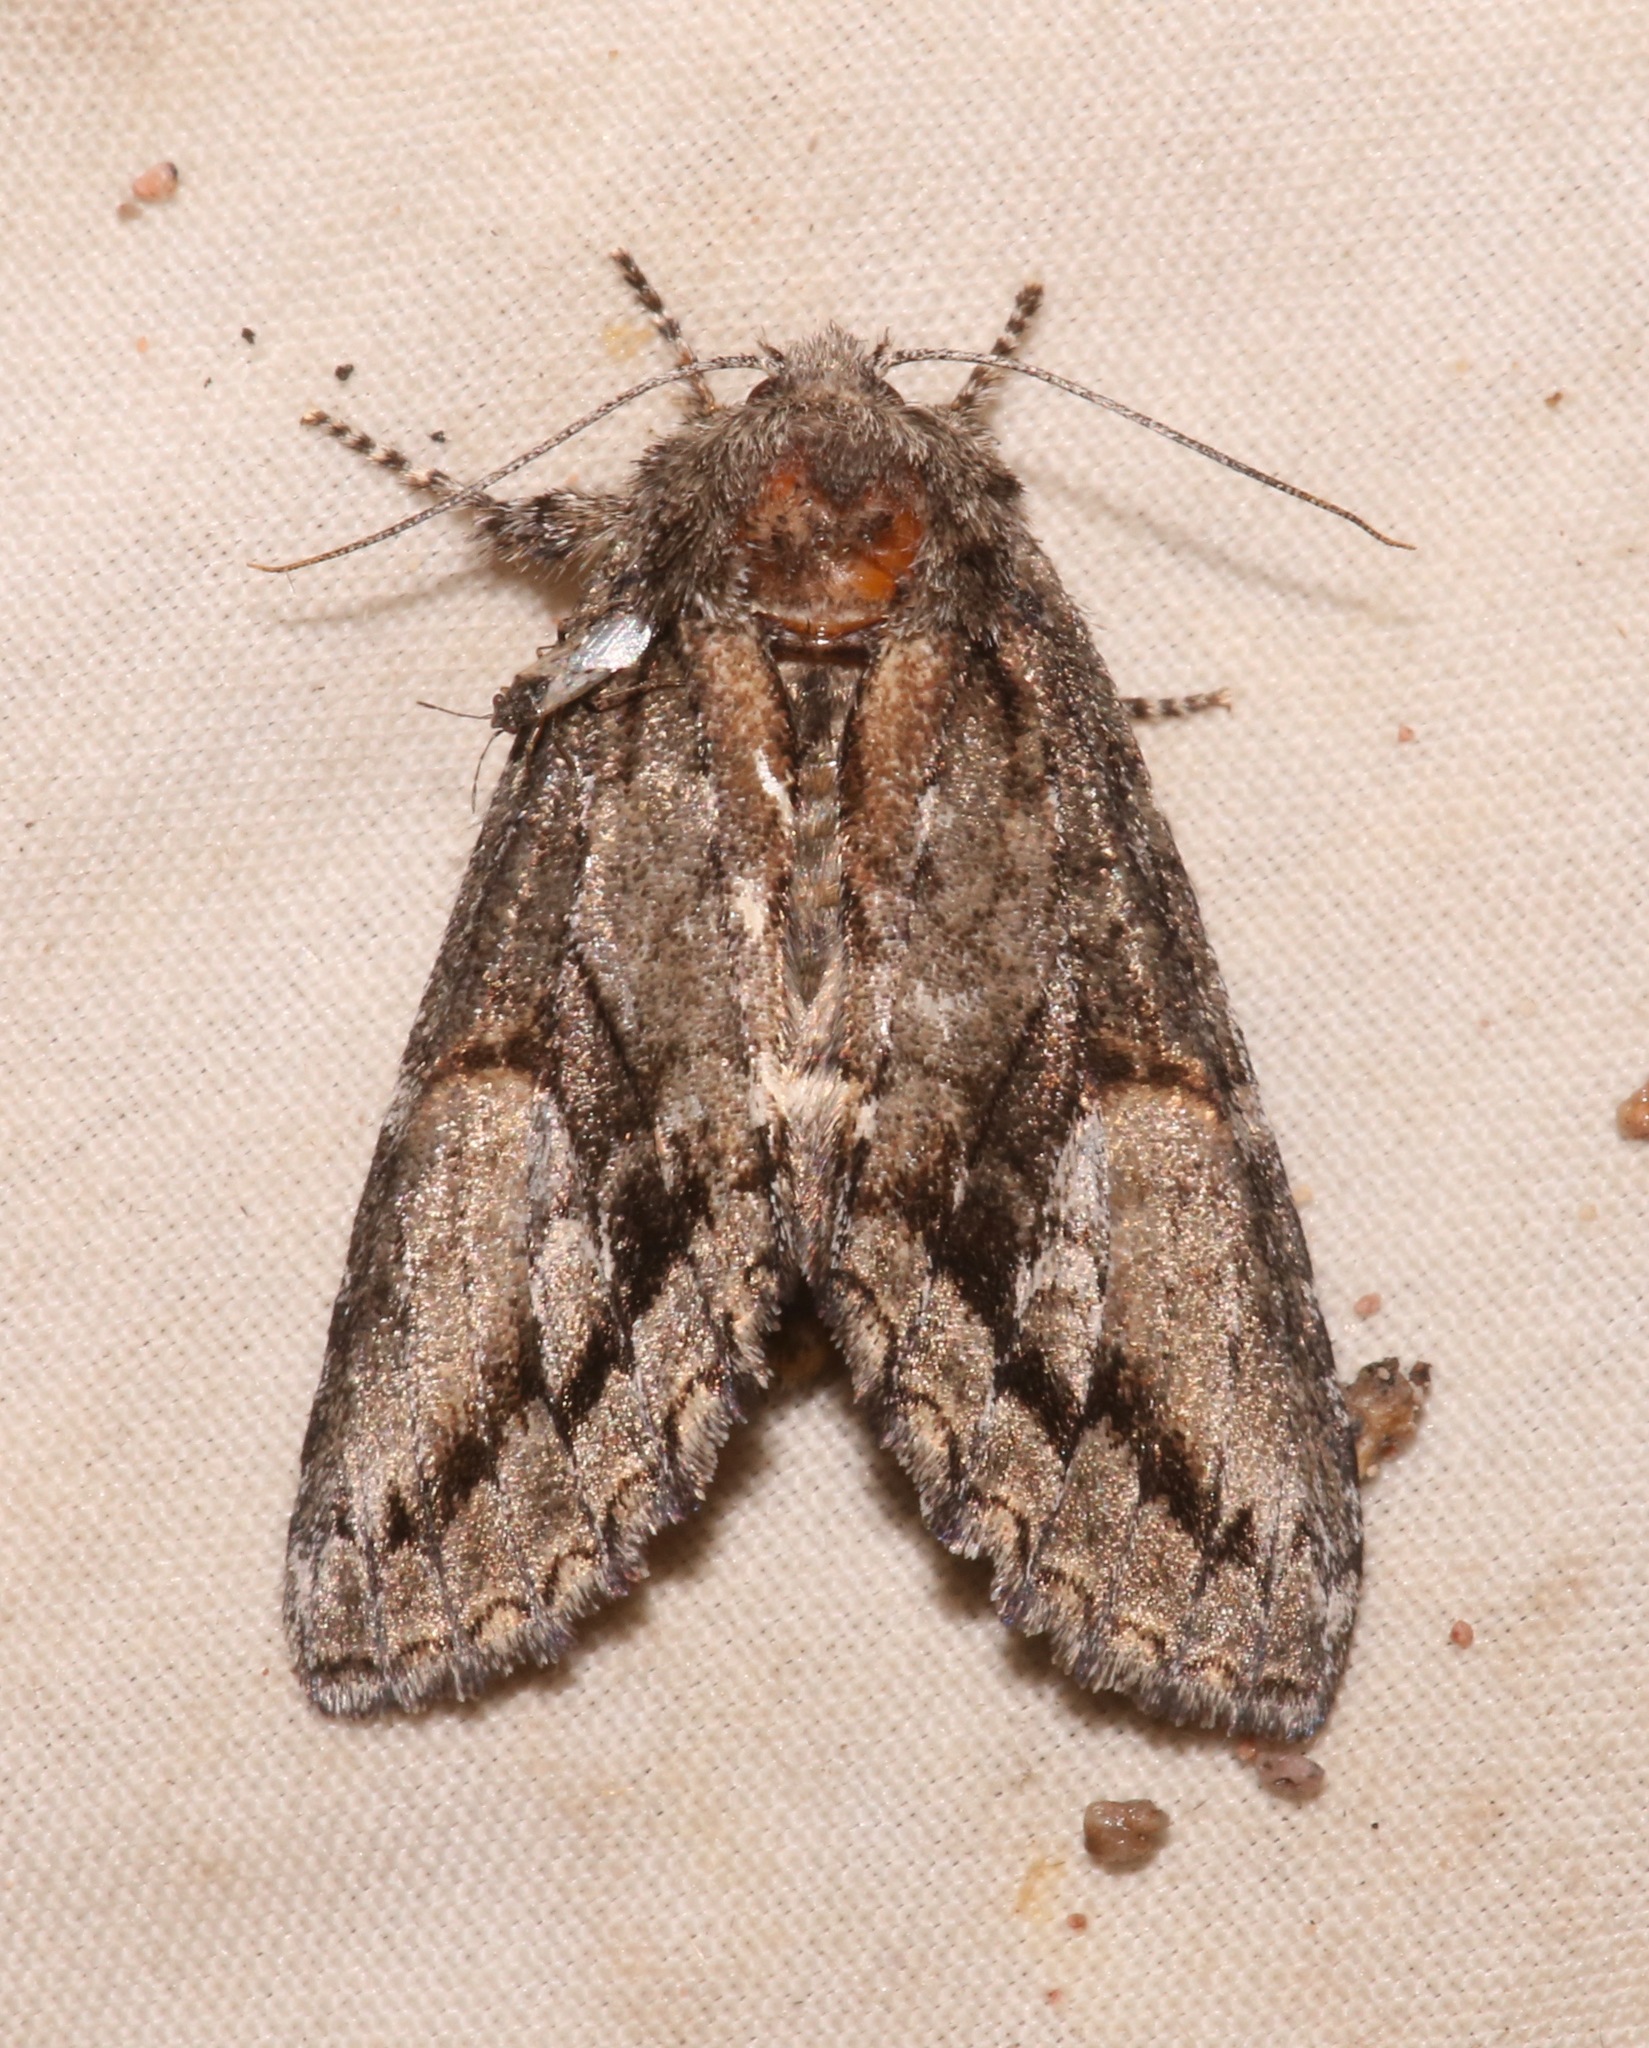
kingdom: Animalia
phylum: Arthropoda
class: Insecta
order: Lepidoptera
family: Notodontidae
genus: Heterocampa
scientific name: Heterocampa averna
